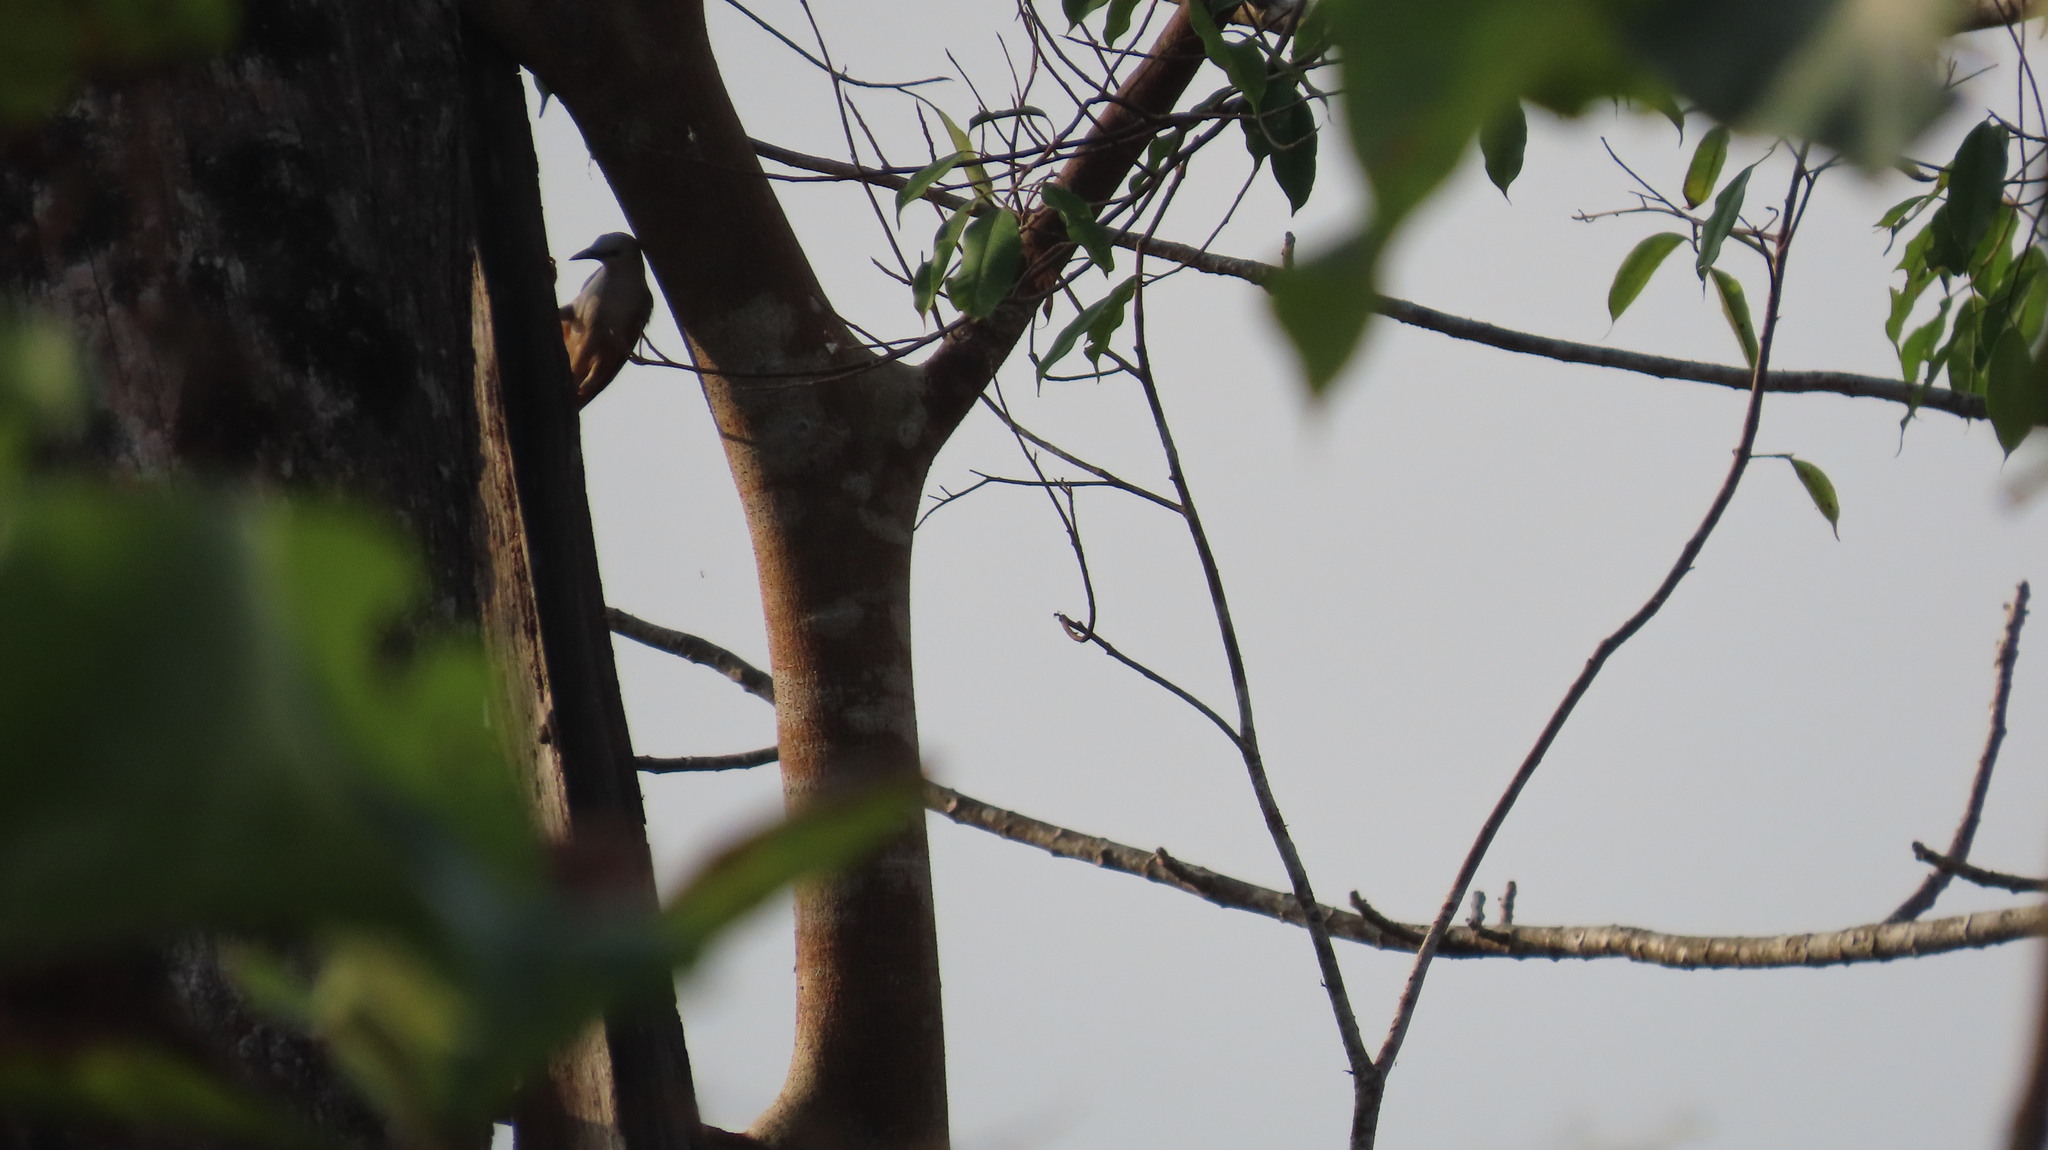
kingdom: Animalia
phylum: Chordata
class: Aves
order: Passeriformes
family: Sturnidae
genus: Sturnia
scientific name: Sturnia blythii
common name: Malabar starling
